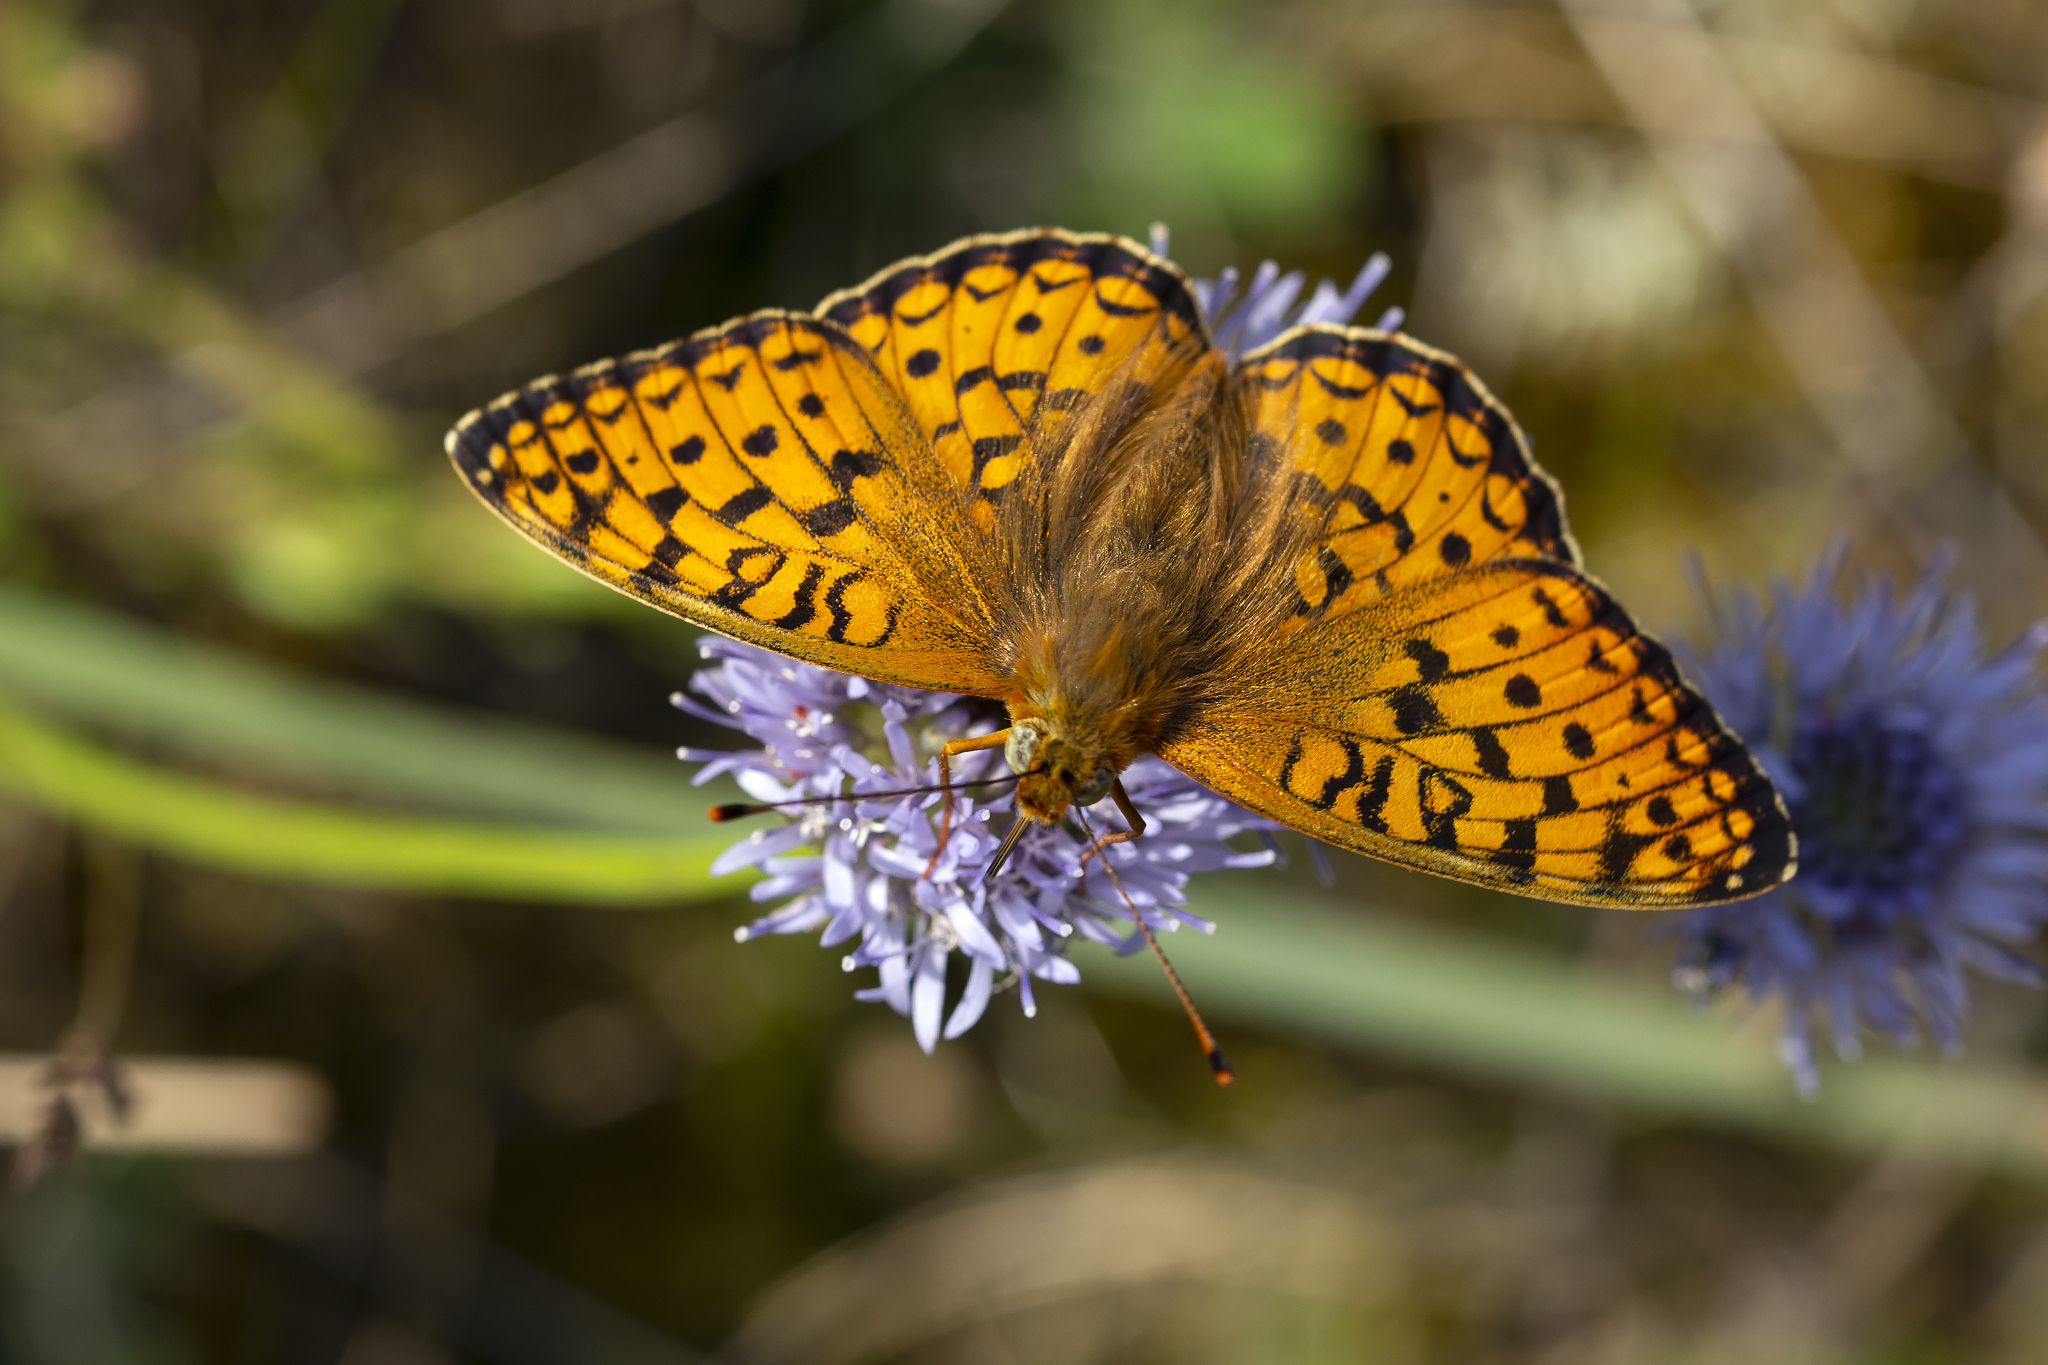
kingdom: Animalia
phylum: Arthropoda
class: Insecta
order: Lepidoptera
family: Nymphalidae
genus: Fabriciana
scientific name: Fabriciana niobe
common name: Niobe fritillary
